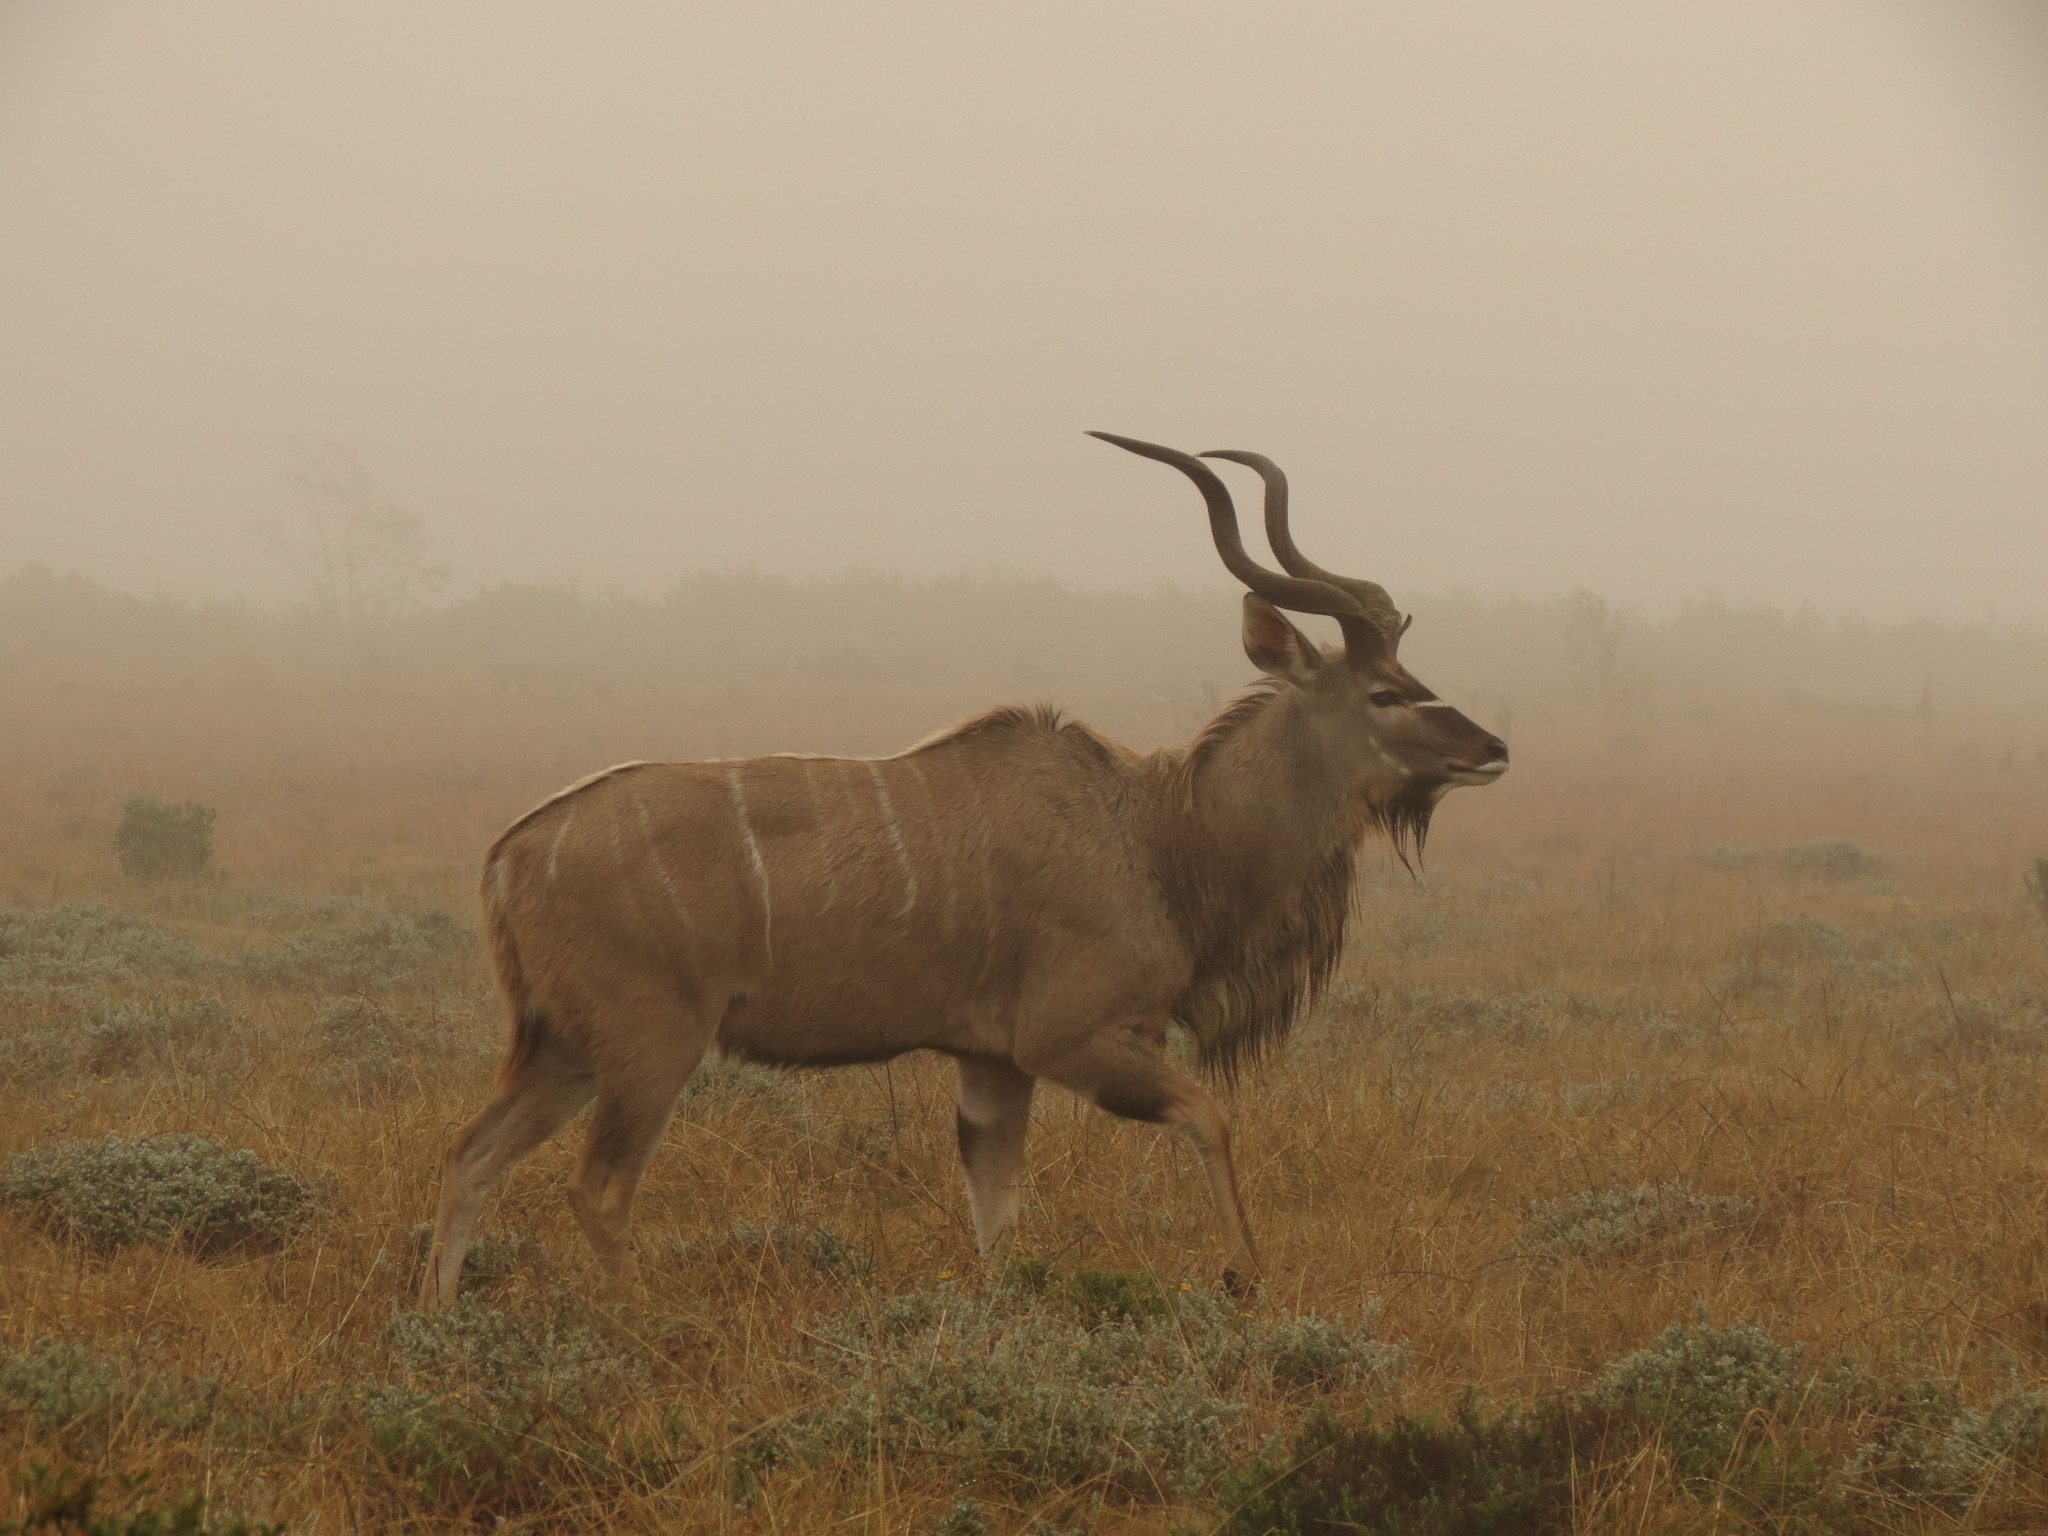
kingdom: Animalia
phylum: Chordata
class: Mammalia
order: Artiodactyla
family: Bovidae
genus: Tragelaphus
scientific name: Tragelaphus strepsiceros
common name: Greater kudu
